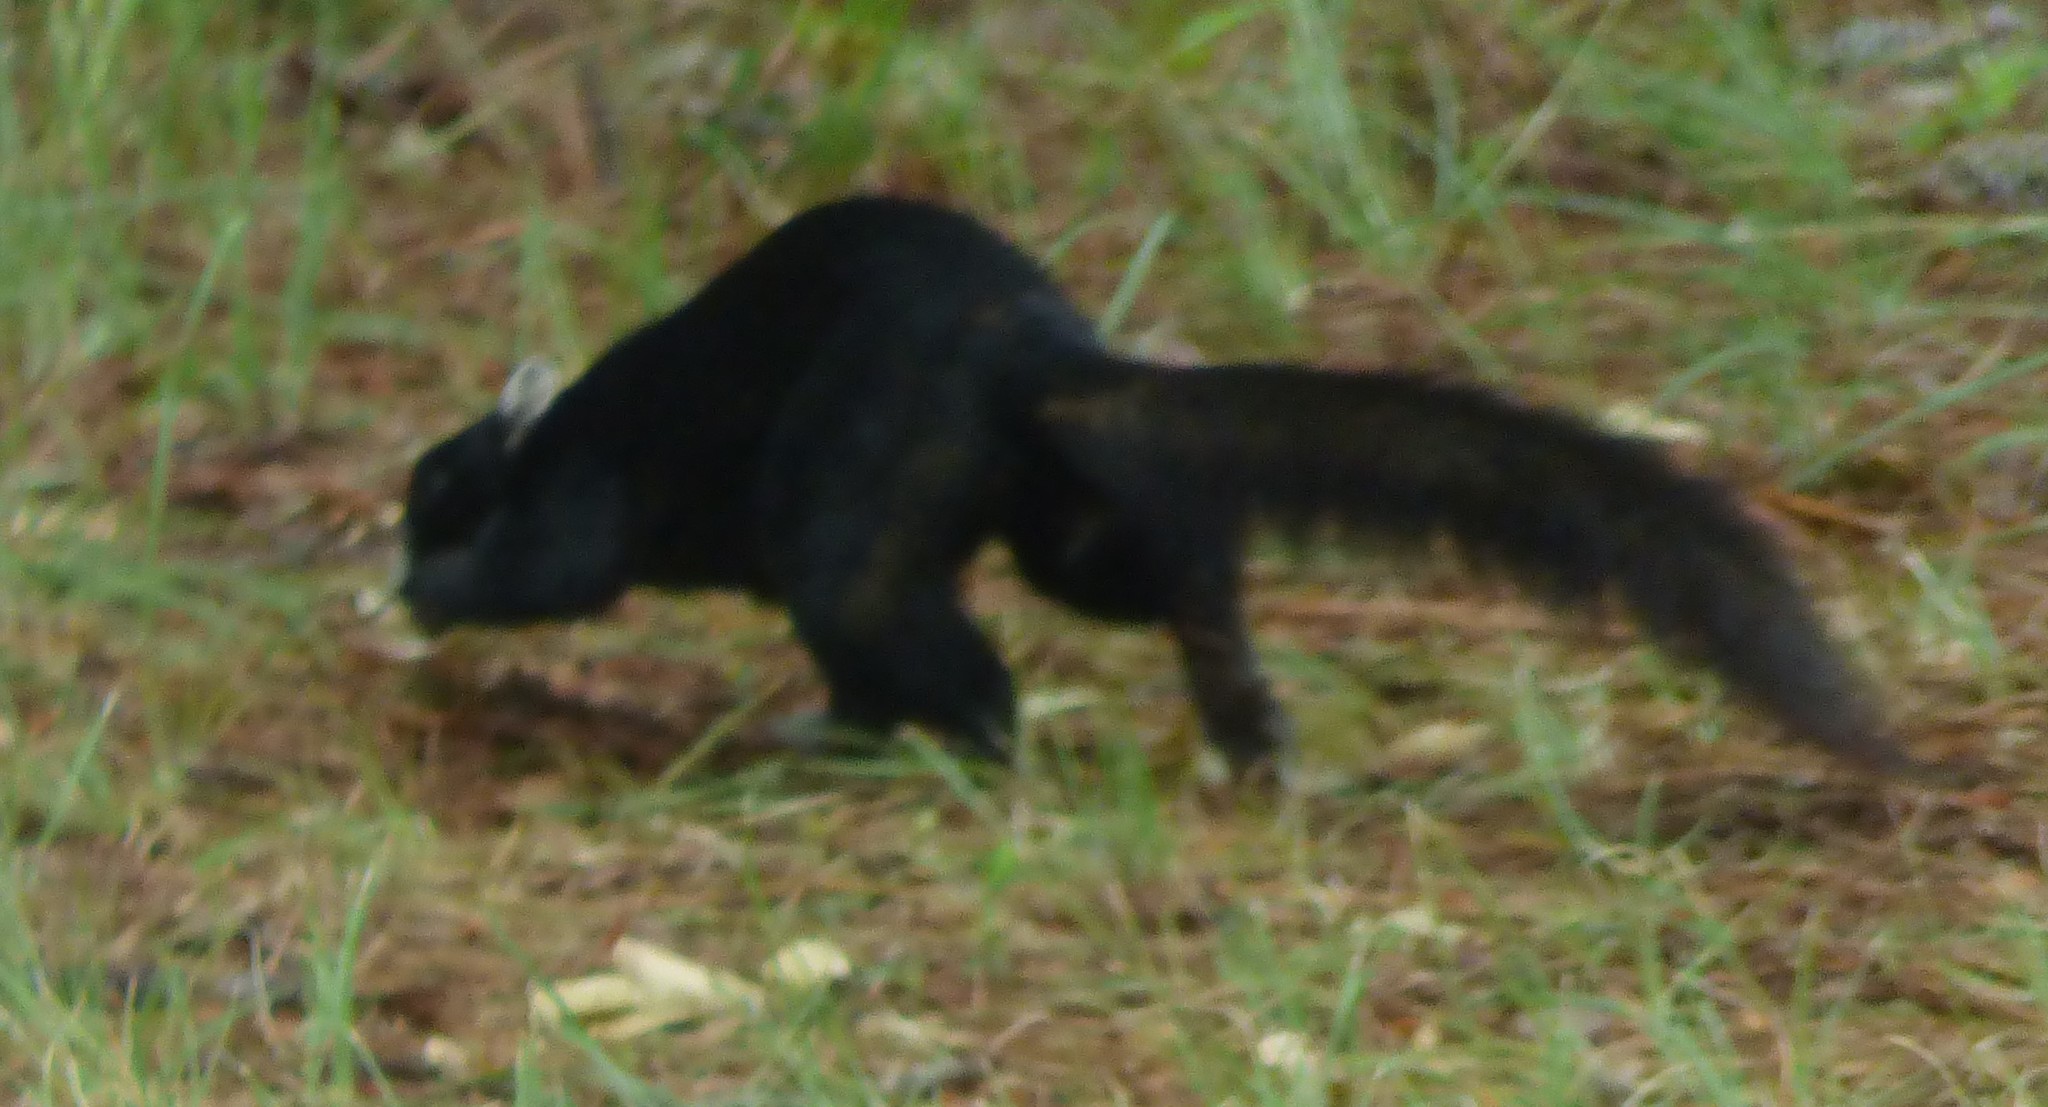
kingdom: Animalia
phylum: Chordata
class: Mammalia
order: Rodentia
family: Sciuridae
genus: Sciurus
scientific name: Sciurus niger
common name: Fox squirrel
